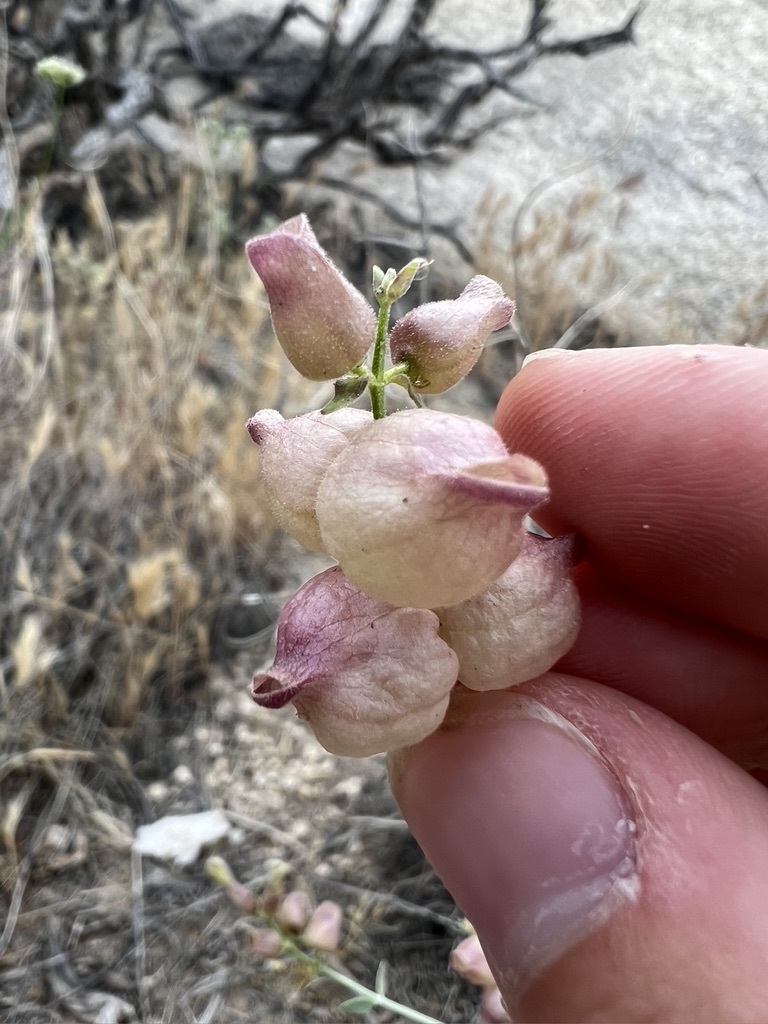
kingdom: Plantae
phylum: Tracheophyta
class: Magnoliopsida
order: Lamiales
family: Lamiaceae
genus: Scutellaria
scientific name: Scutellaria mexicana
